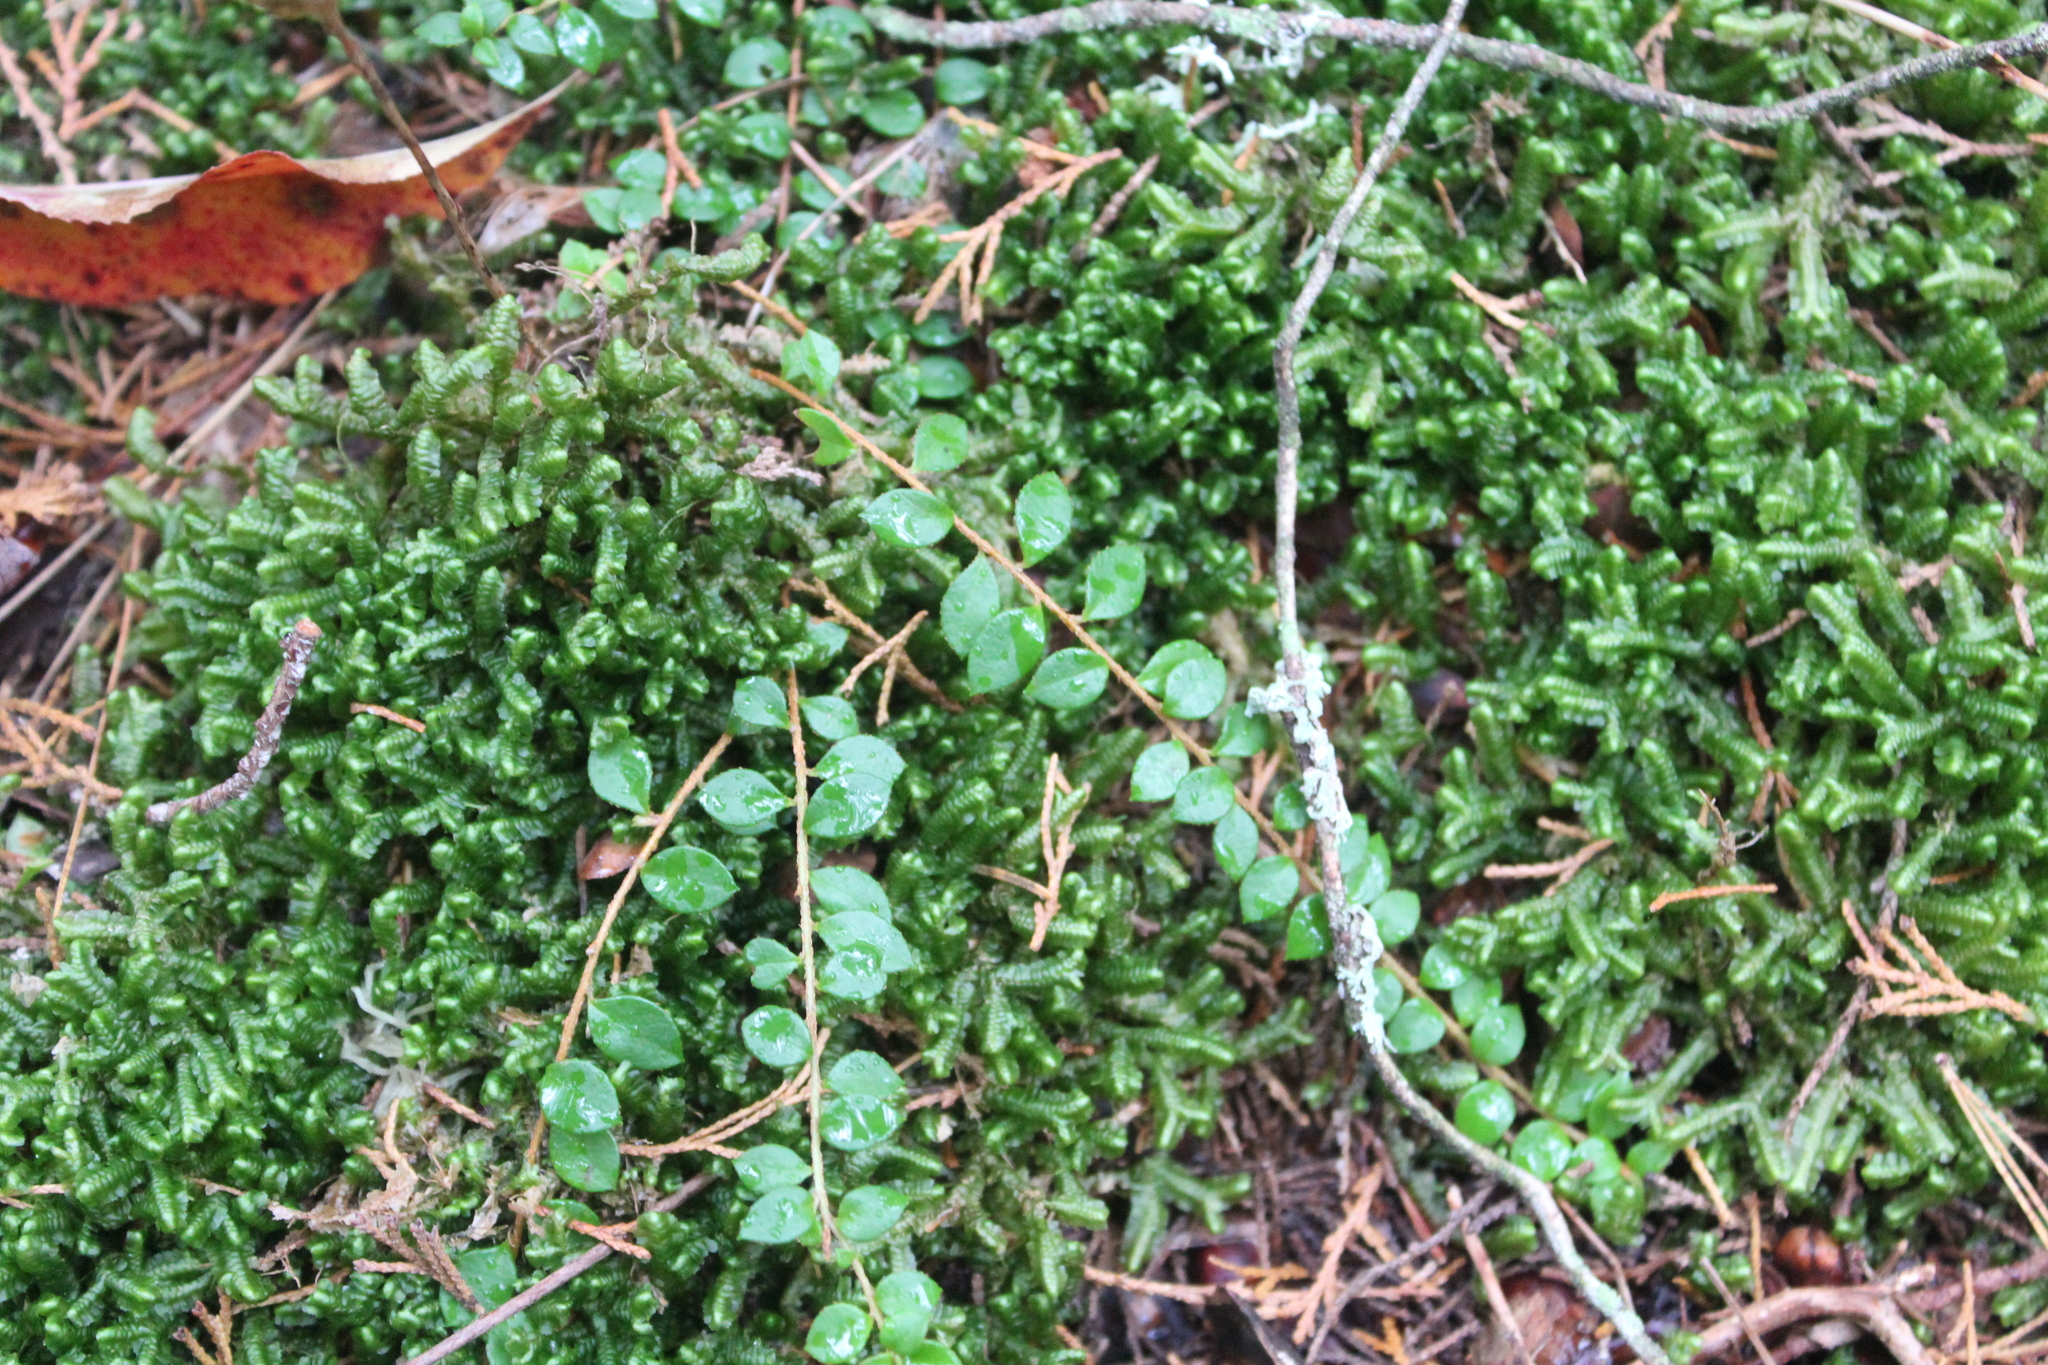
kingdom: Plantae
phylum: Tracheophyta
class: Magnoliopsida
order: Ericales
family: Ericaceae
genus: Gaultheria
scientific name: Gaultheria hispidula
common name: Cancer wintergreen
